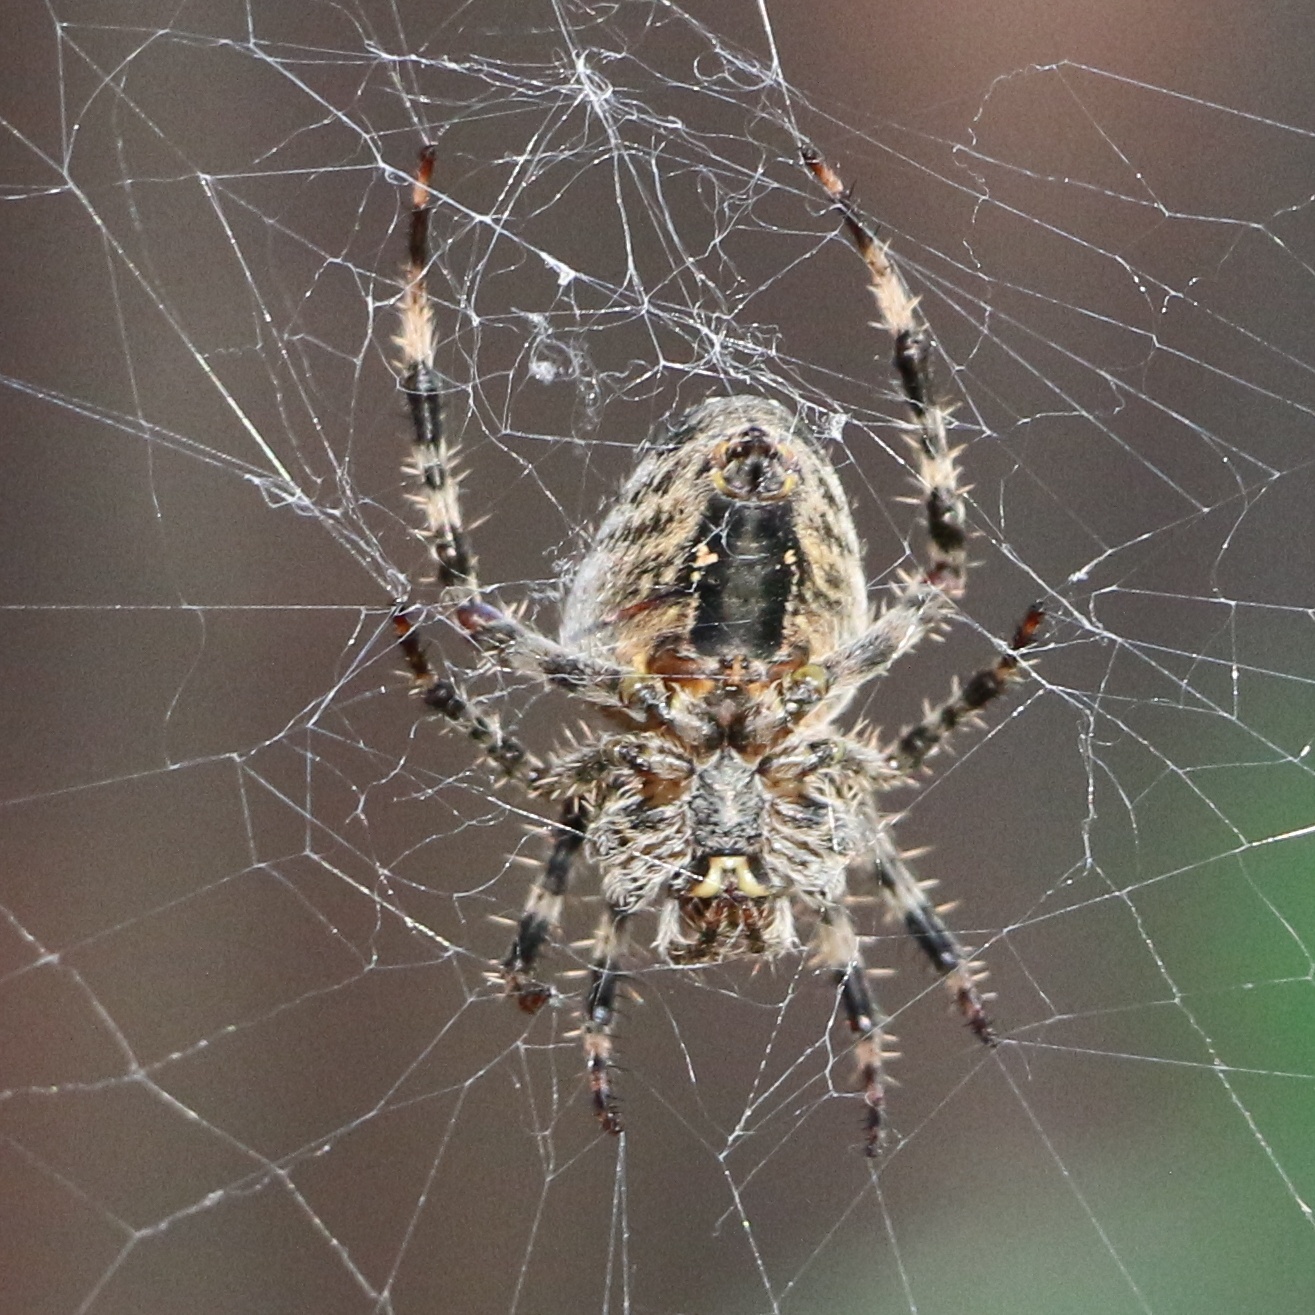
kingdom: Animalia
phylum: Arthropoda
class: Arachnida
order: Araneae
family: Araneidae
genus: Araneus
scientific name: Araneus diadematus
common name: Cross orbweaver
